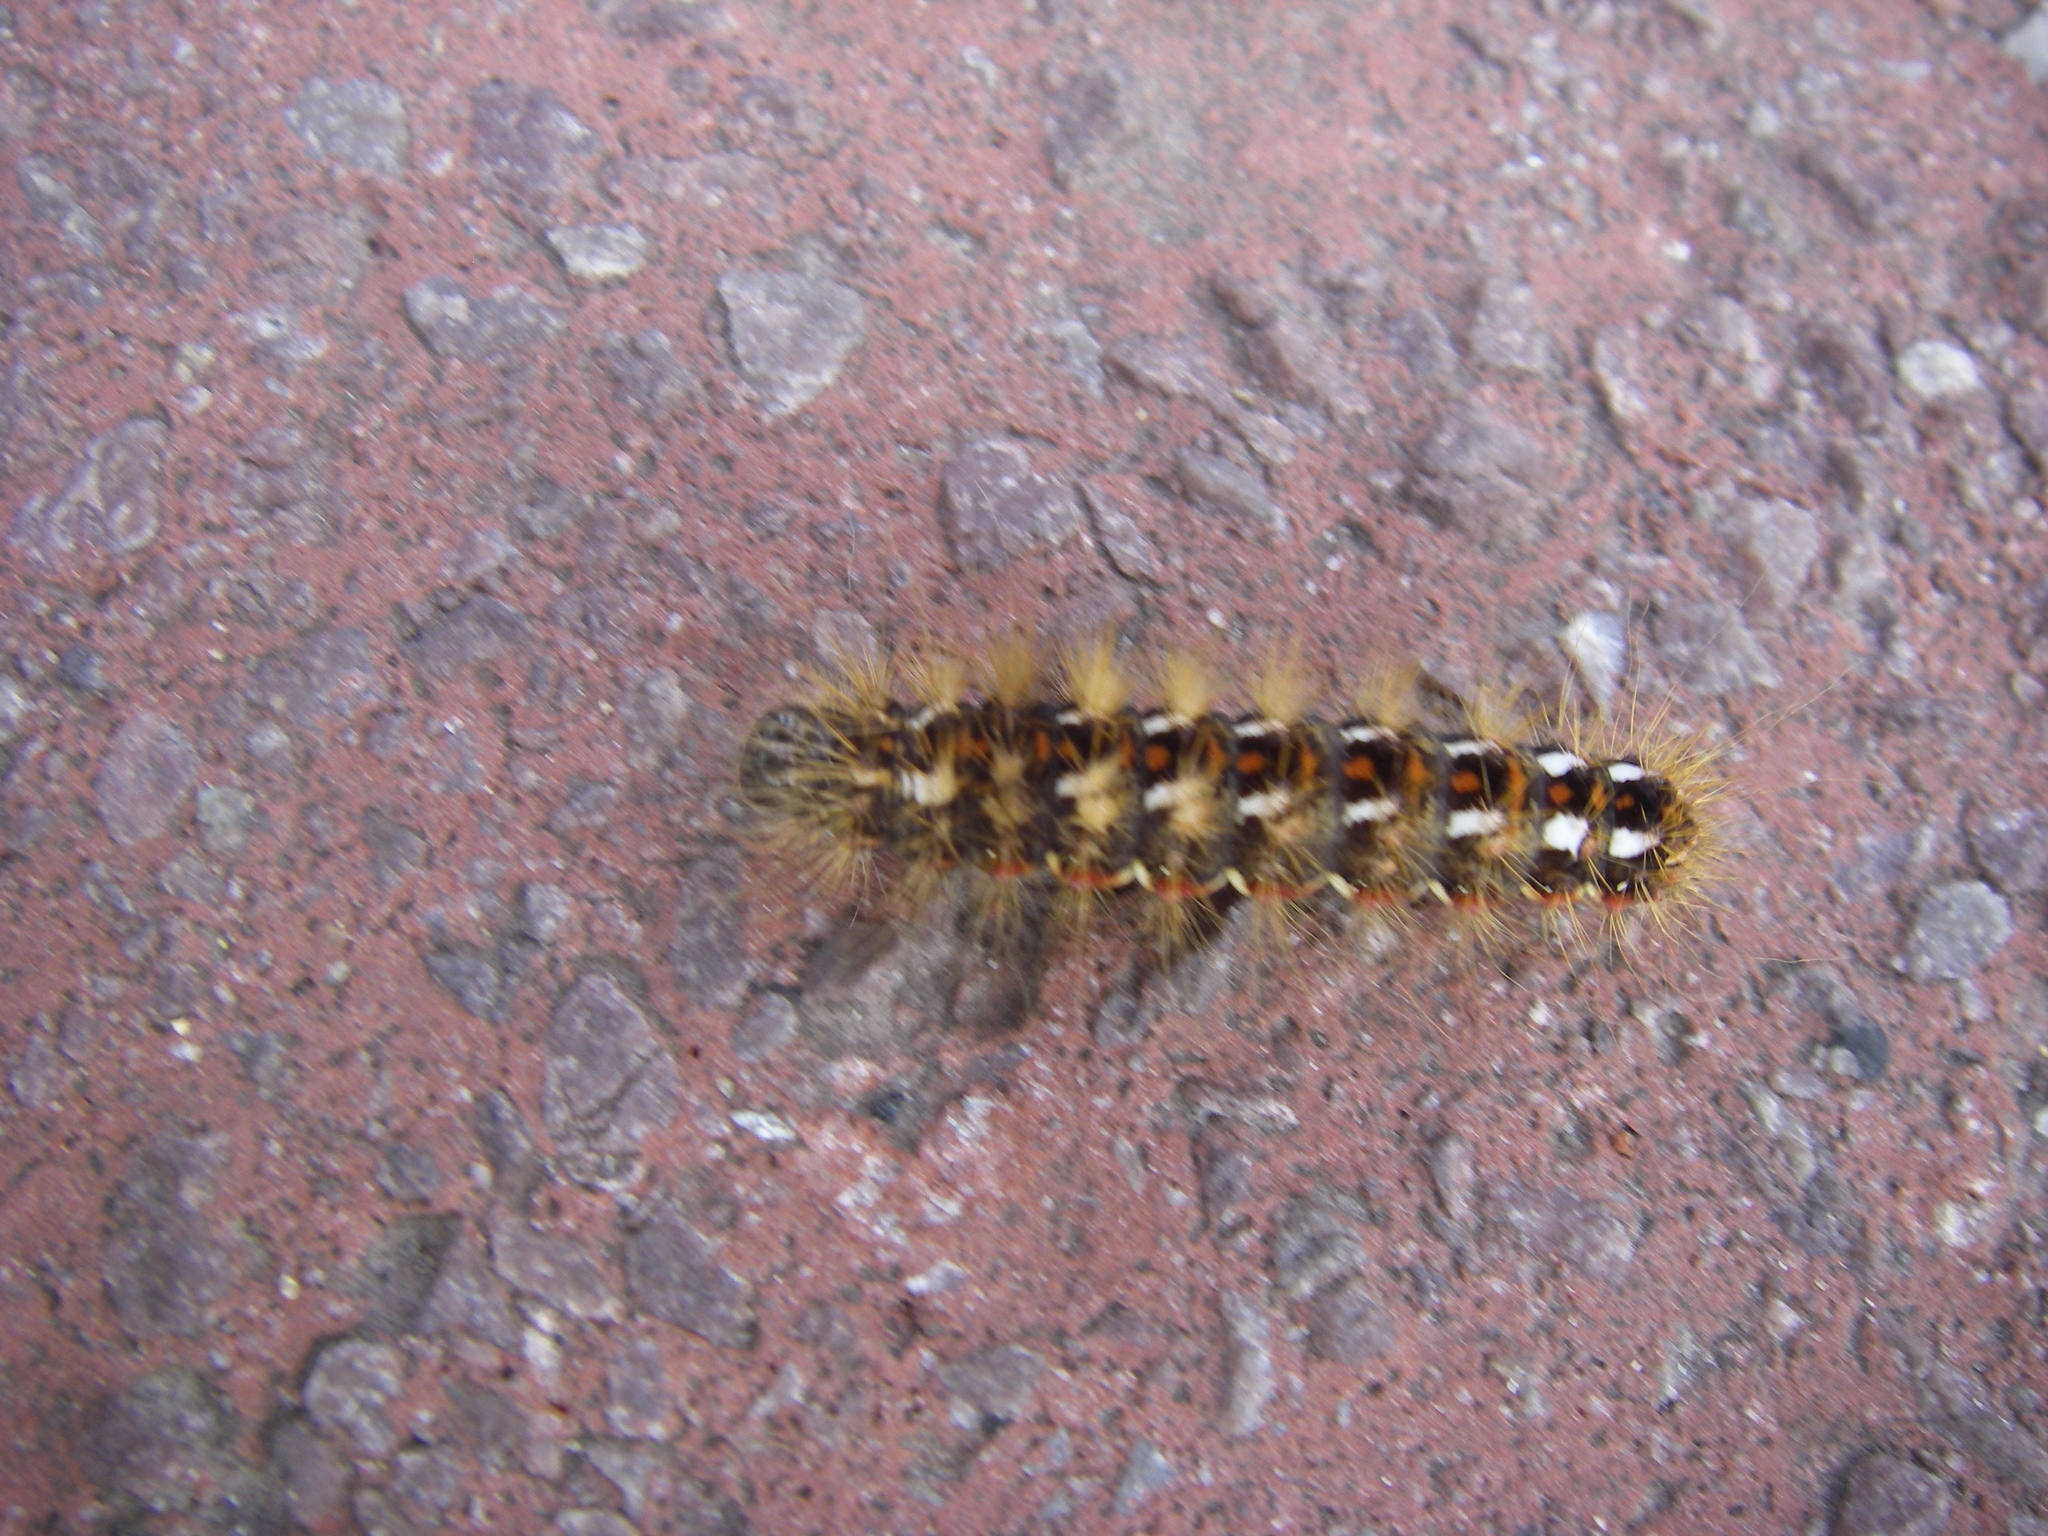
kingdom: Animalia
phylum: Arthropoda
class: Insecta
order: Lepidoptera
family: Noctuidae
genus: Acronicta
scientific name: Acronicta rumicis
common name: Knot grass
